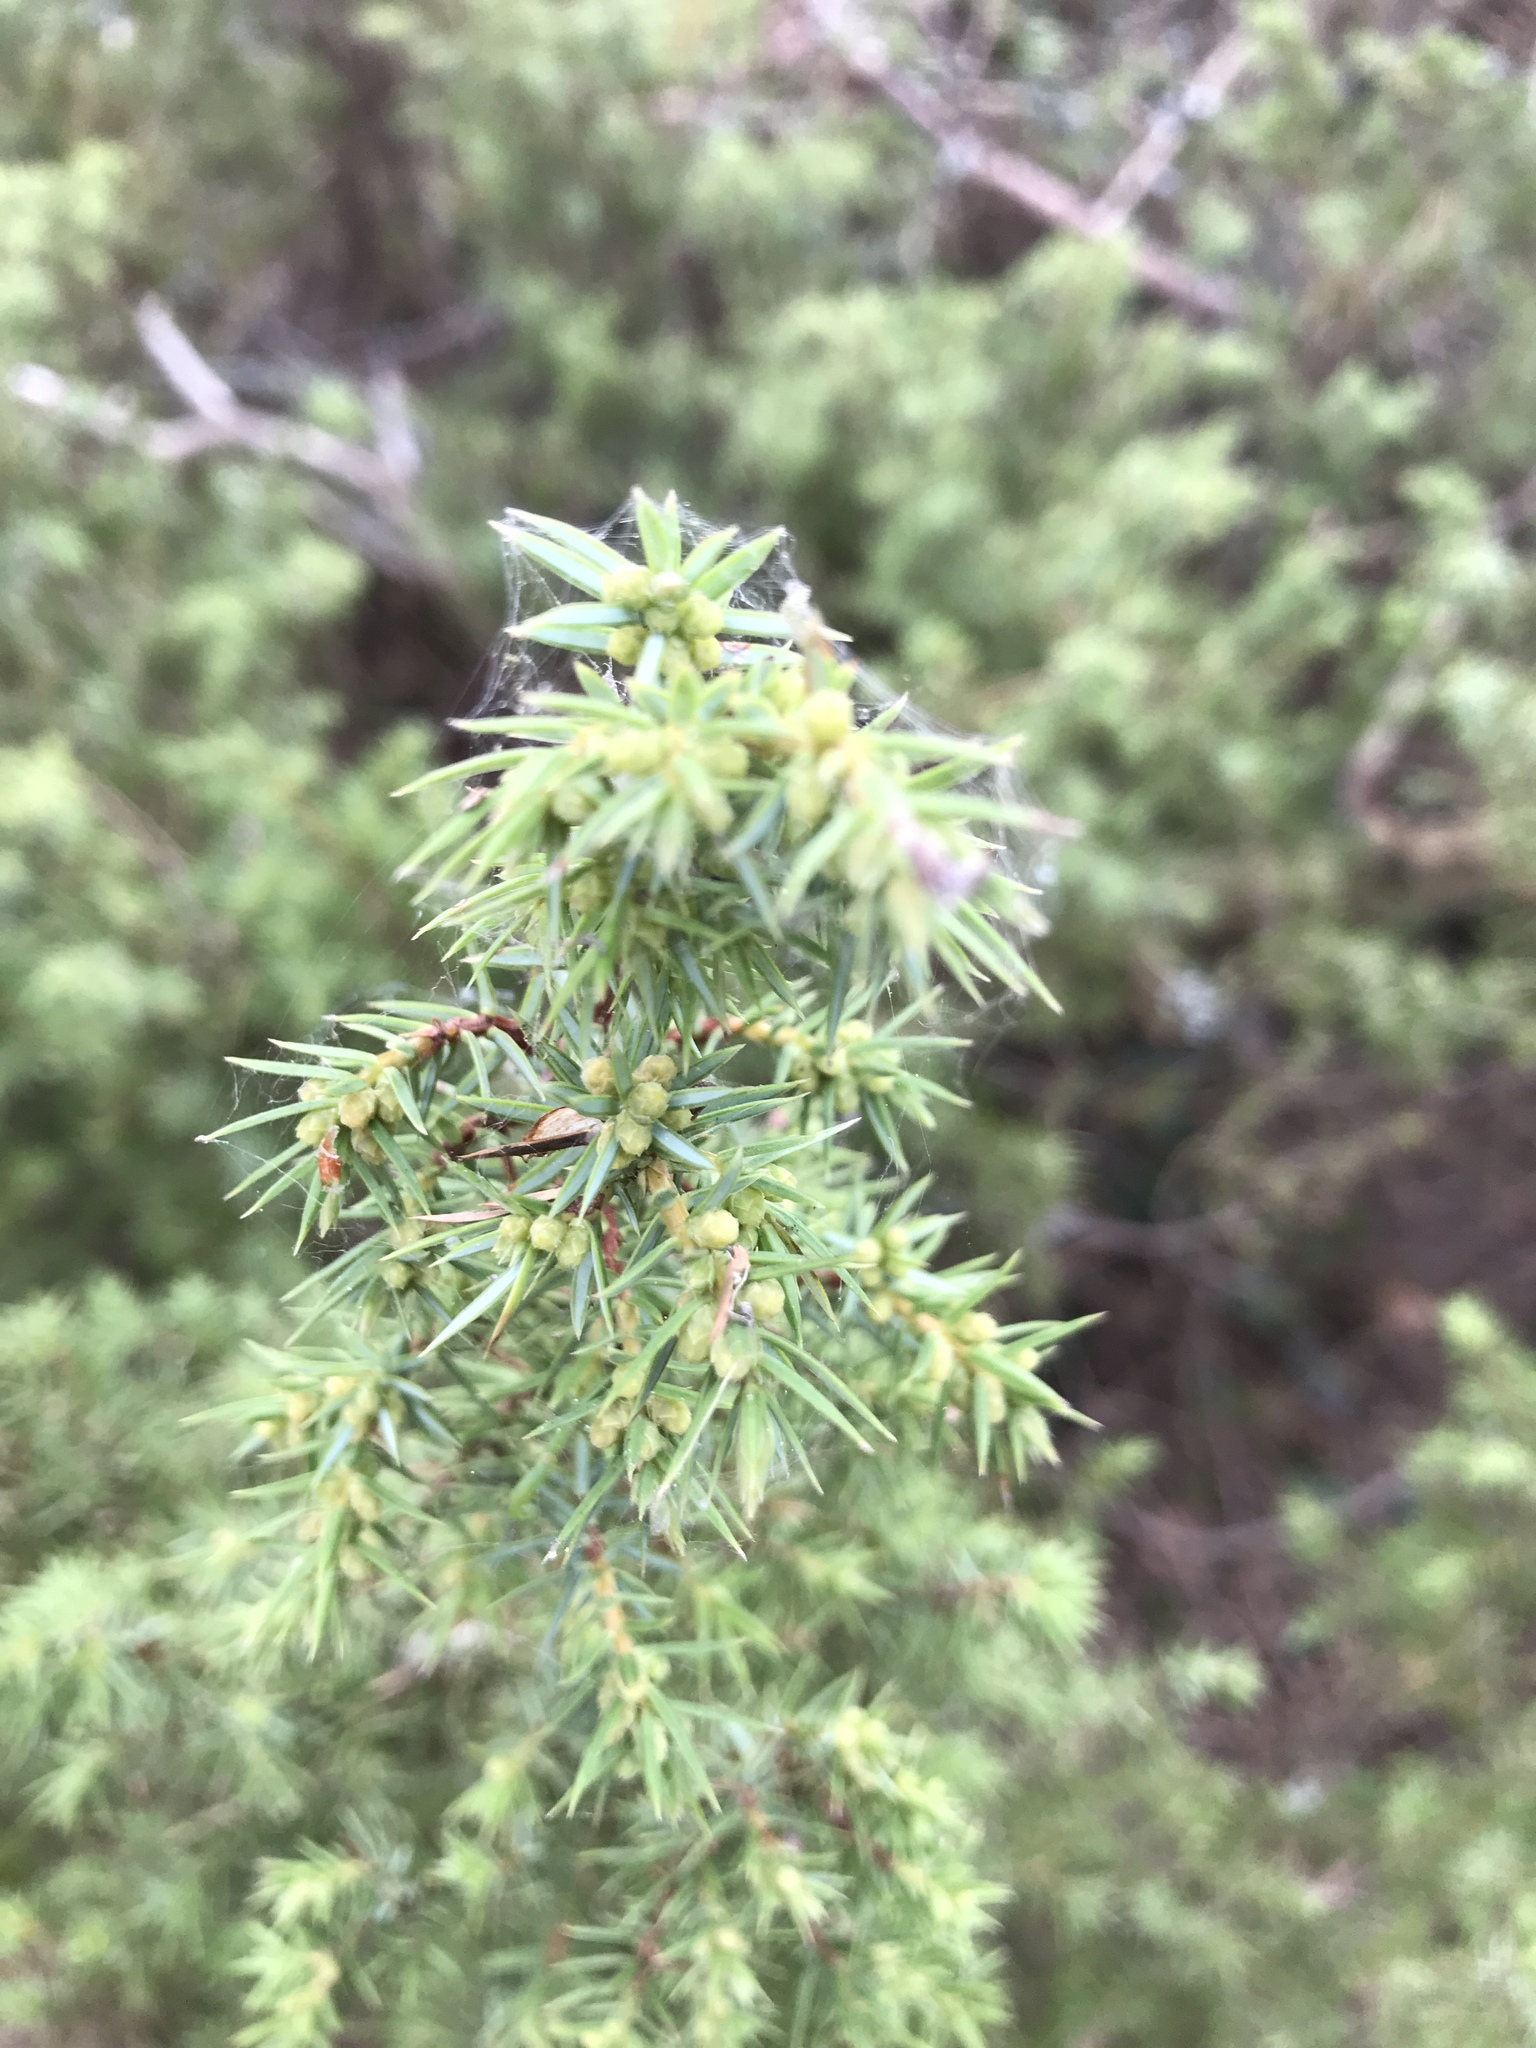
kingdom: Plantae
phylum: Tracheophyta
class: Pinopsida
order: Pinales
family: Cupressaceae
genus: Juniperus
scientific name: Juniperus communis
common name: Common juniper
